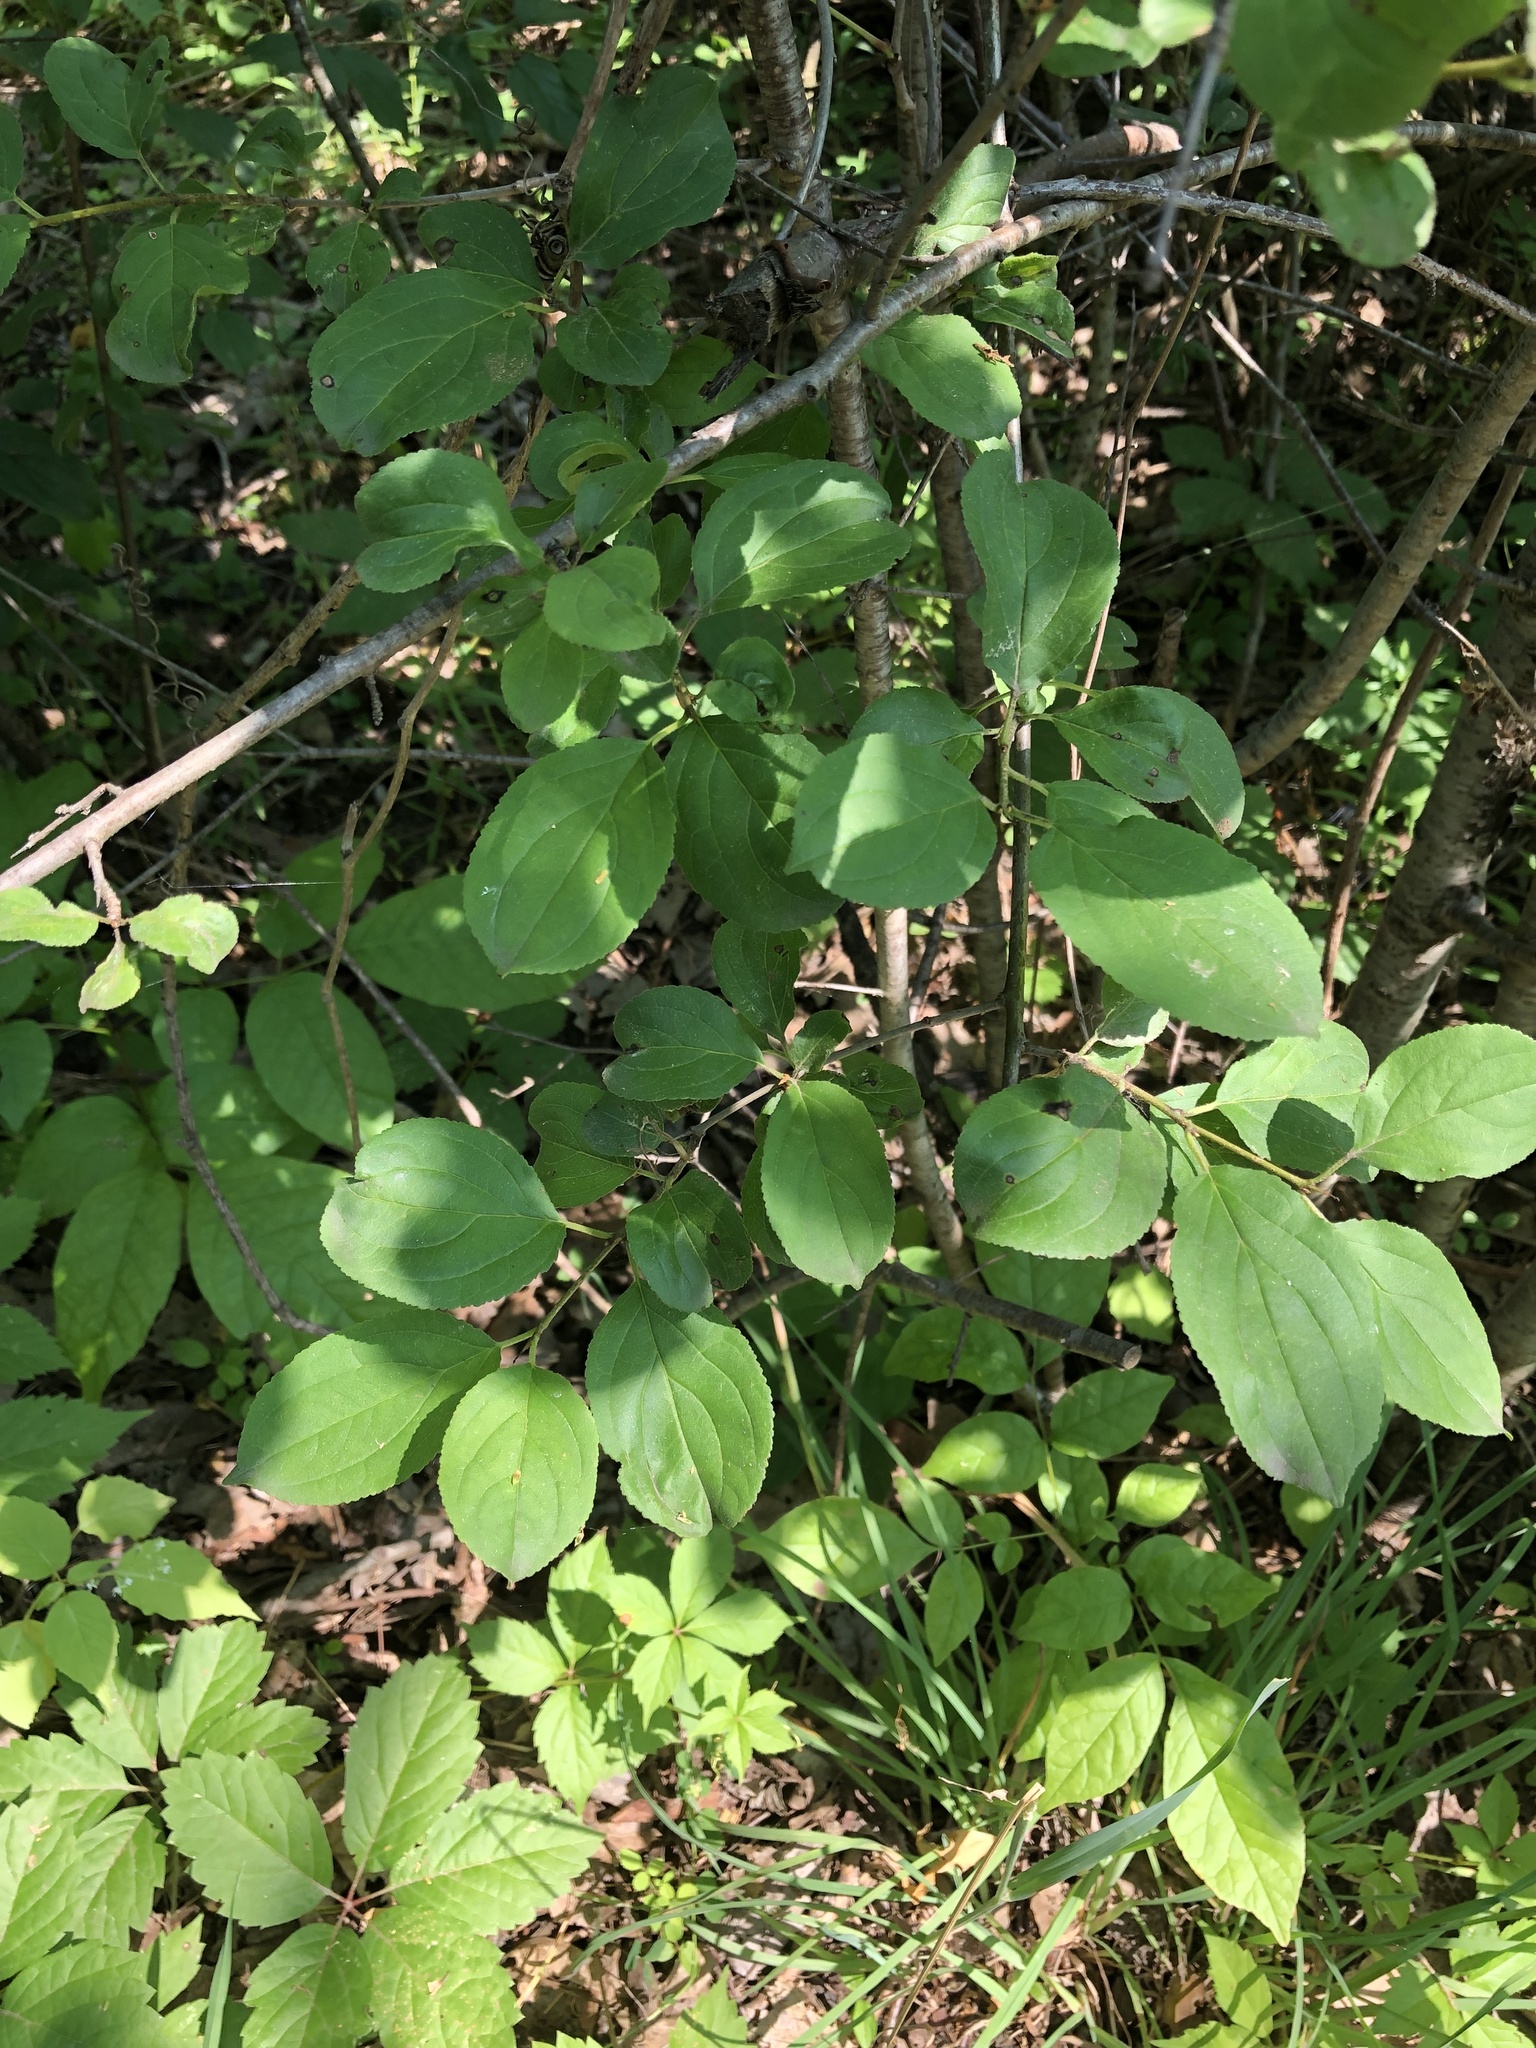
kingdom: Plantae
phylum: Tracheophyta
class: Magnoliopsida
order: Rosales
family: Rhamnaceae
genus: Rhamnus
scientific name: Rhamnus cathartica
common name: Common buckthorn
